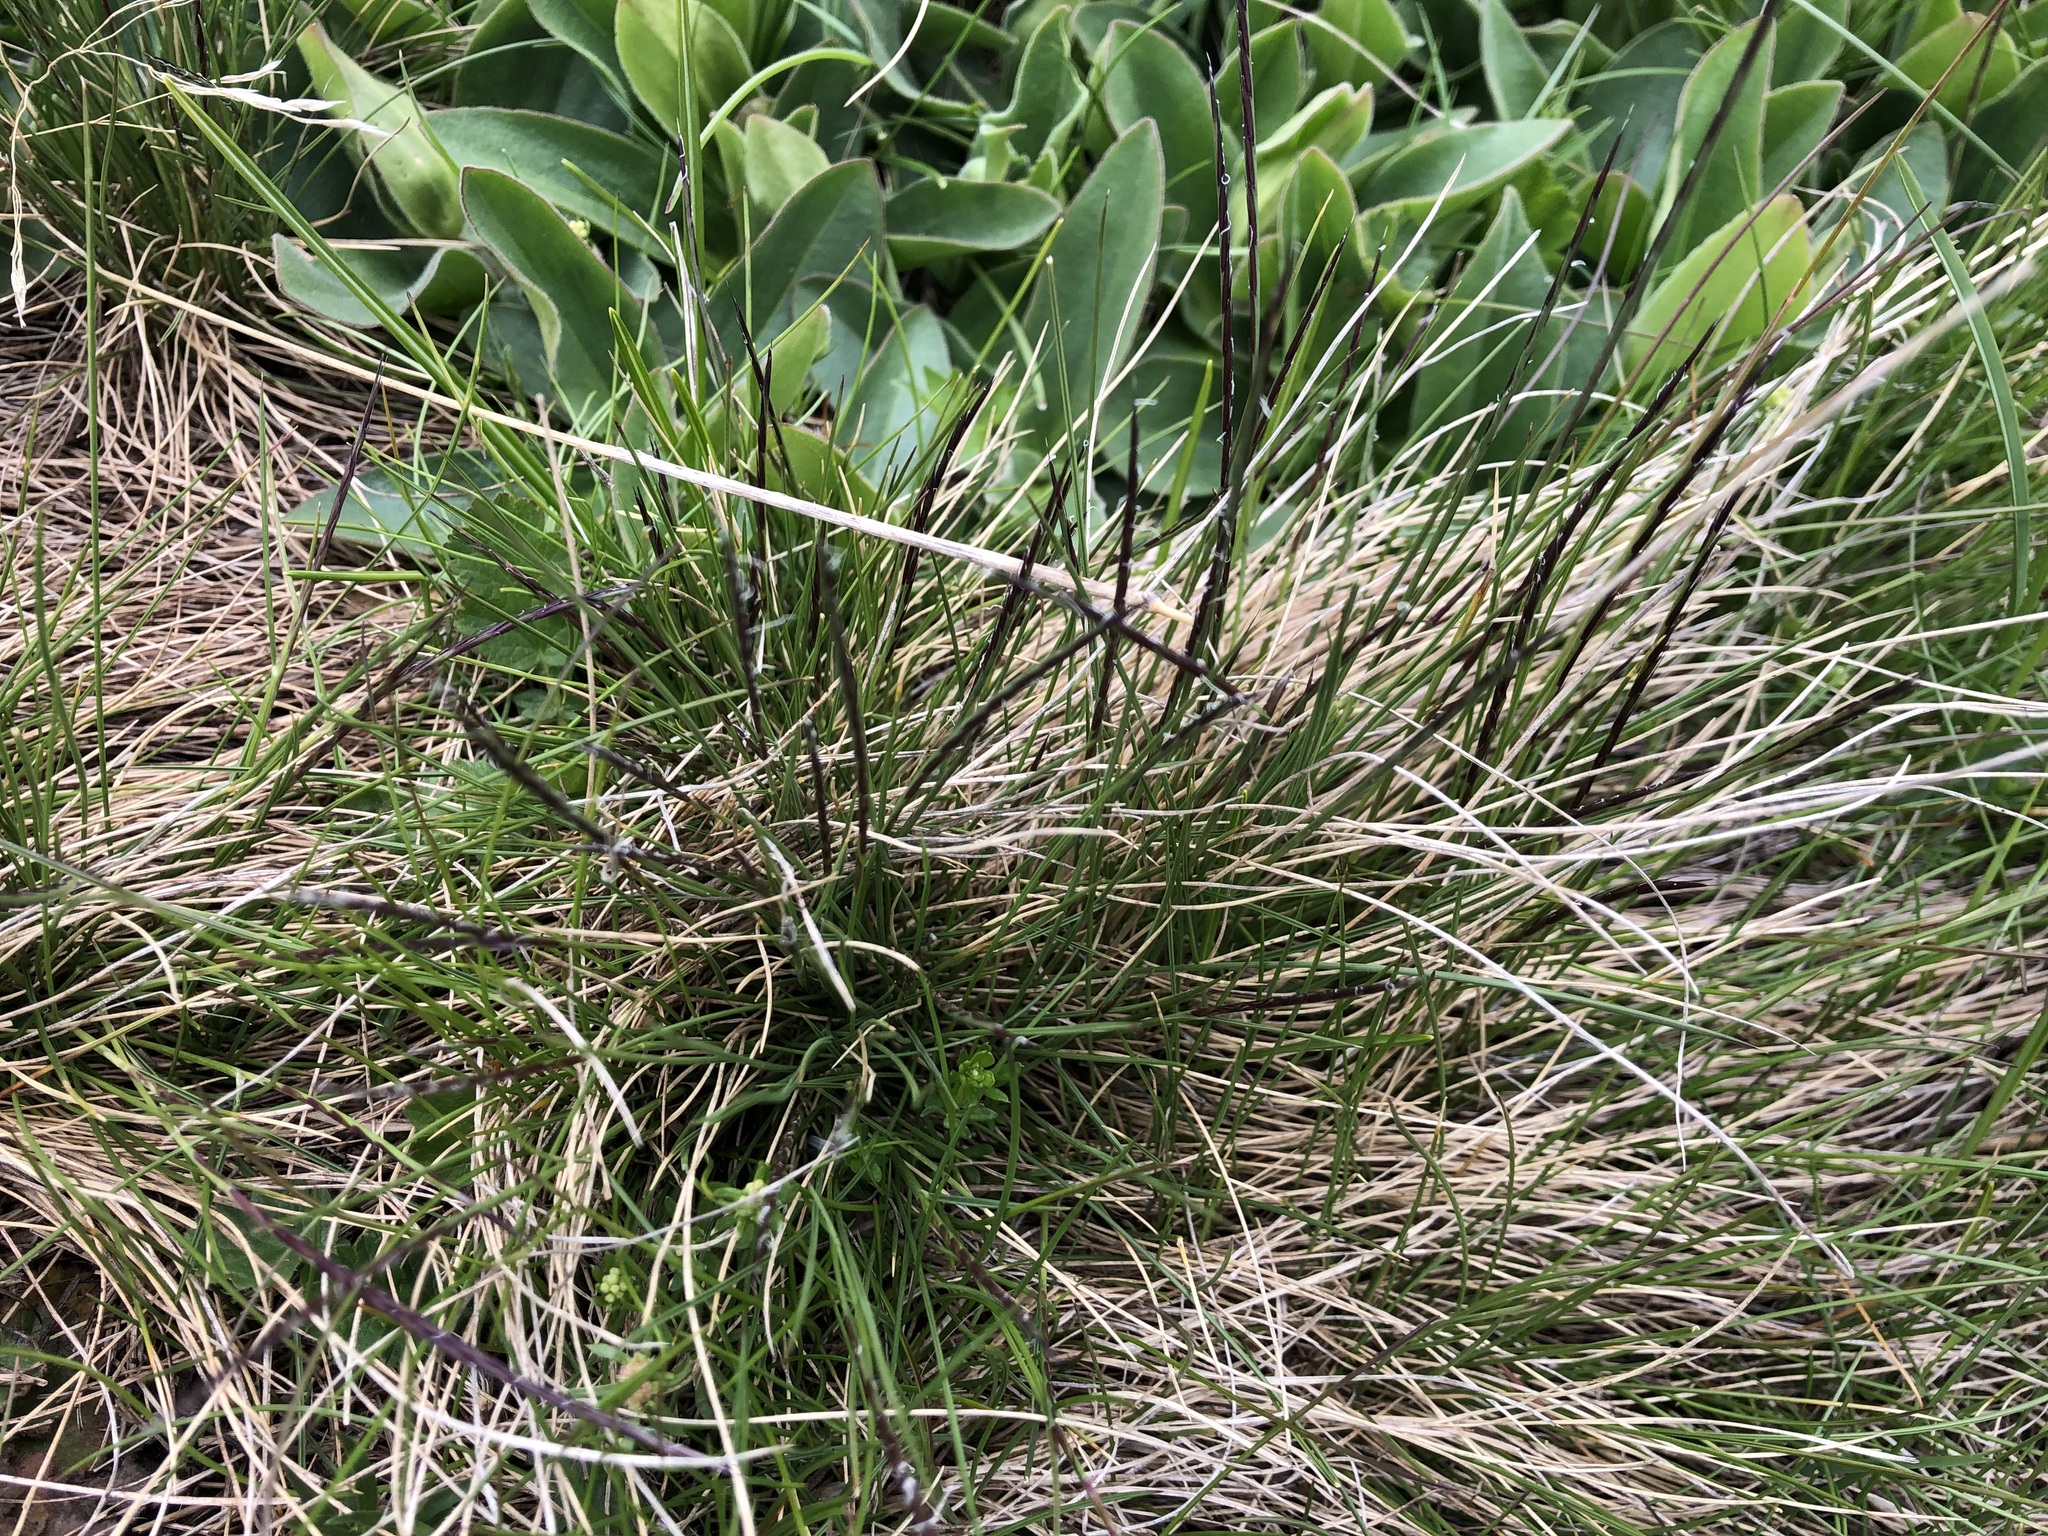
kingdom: Plantae
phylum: Tracheophyta
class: Liliopsida
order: Poales
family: Poaceae
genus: Nardus
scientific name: Nardus stricta
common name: Mat-grass
